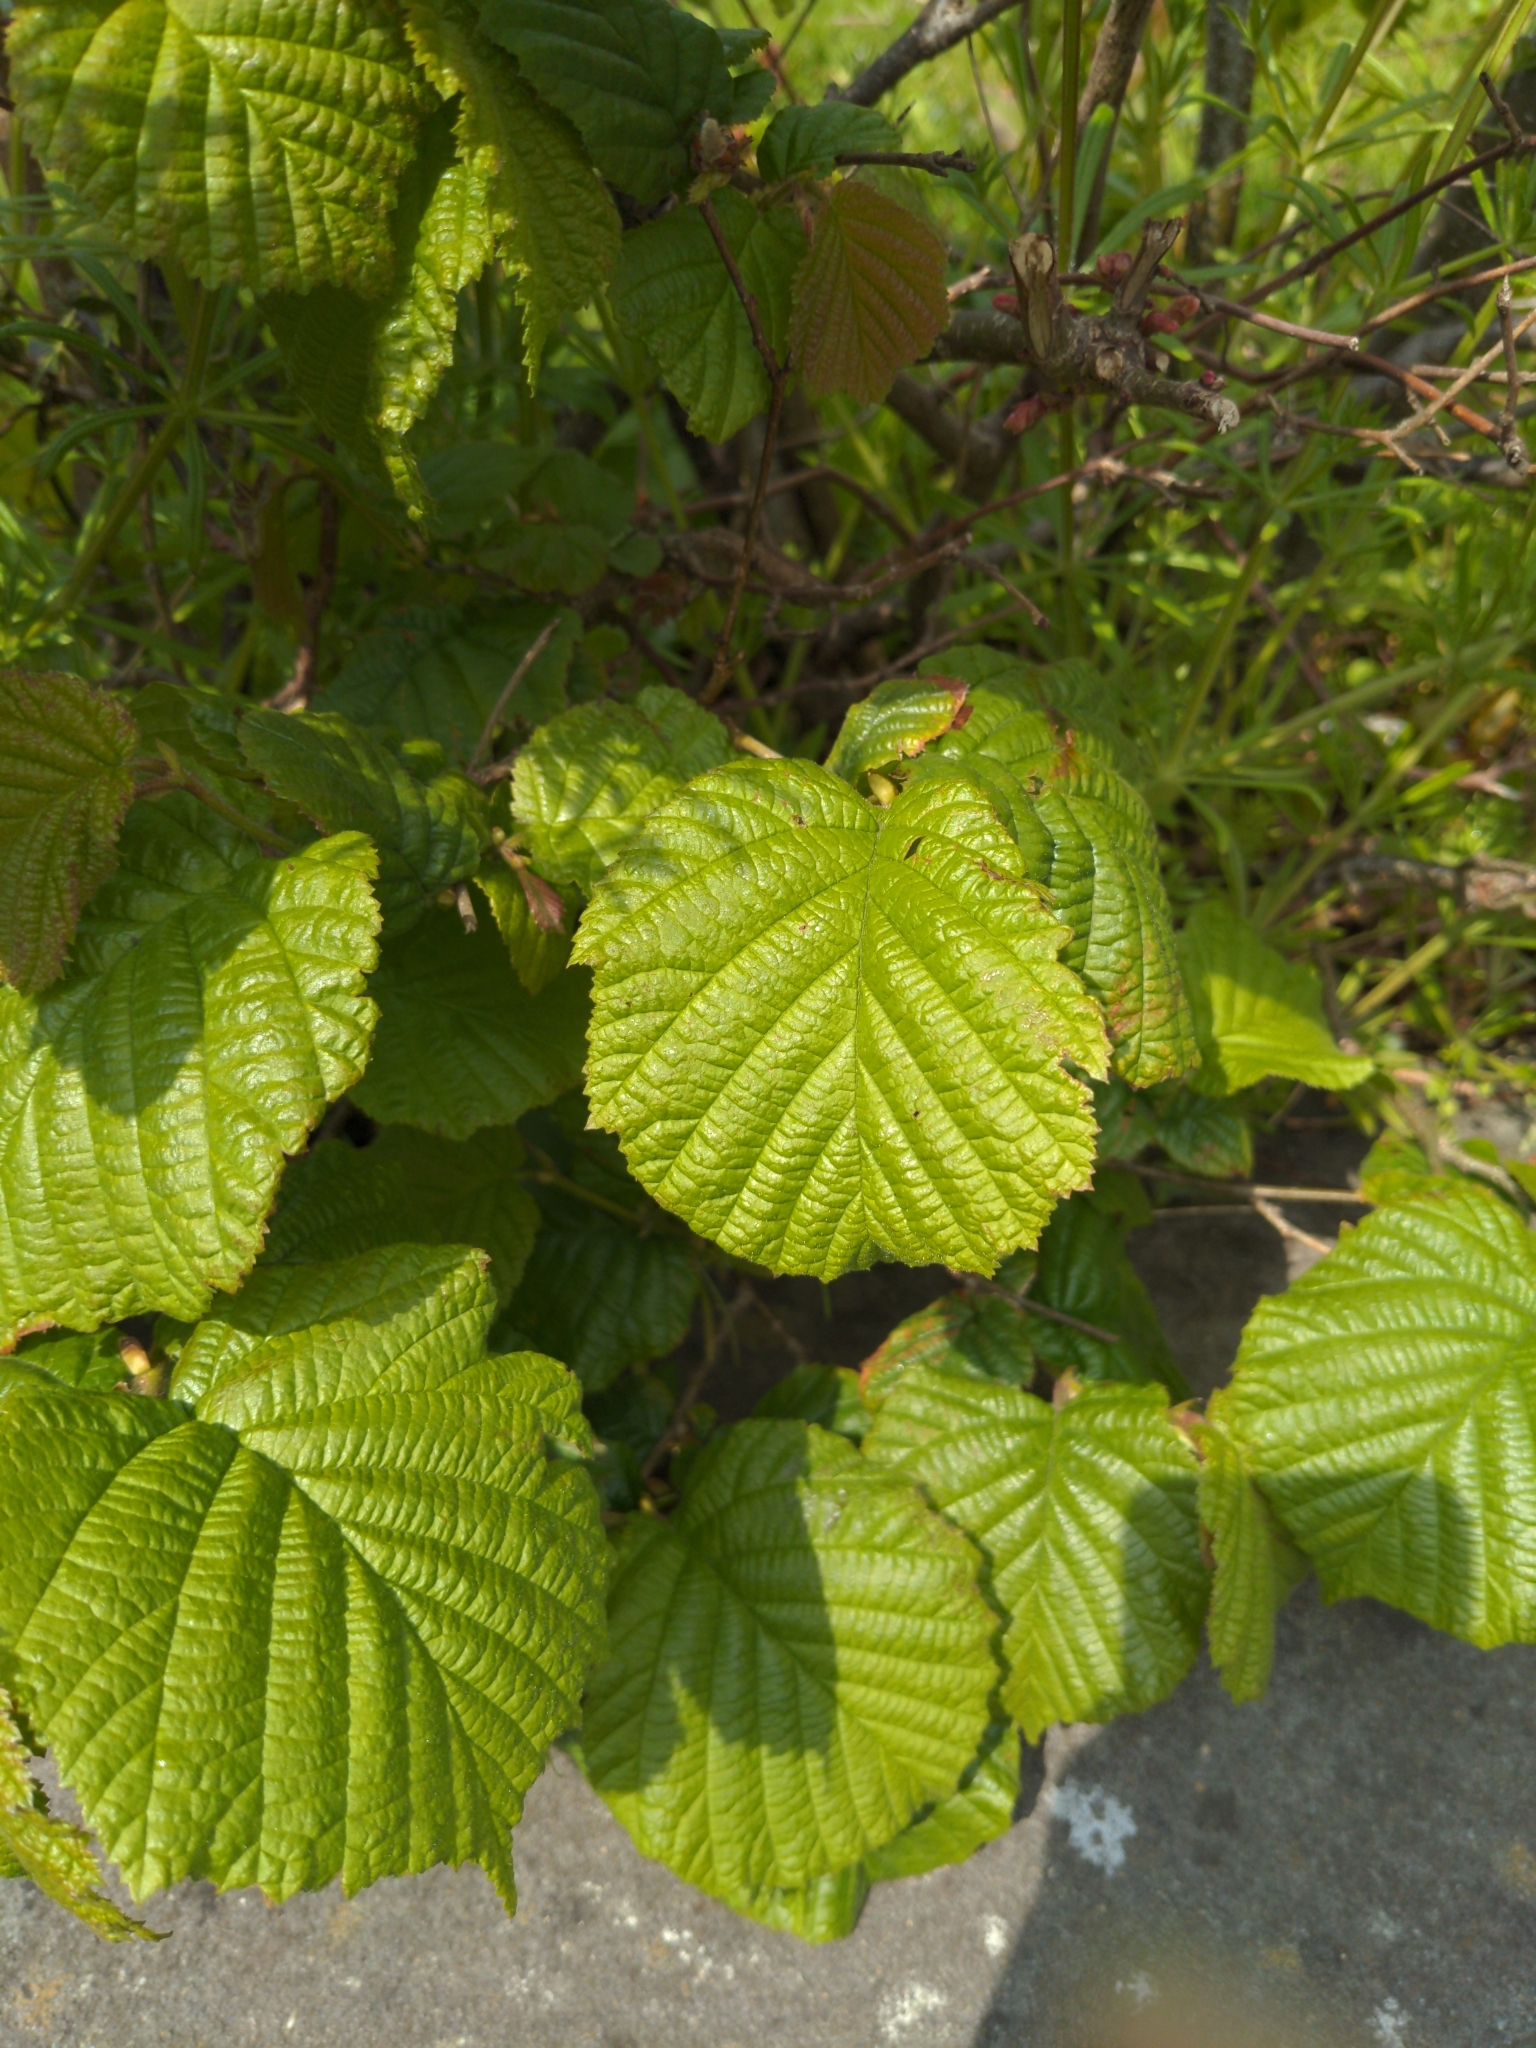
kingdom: Plantae
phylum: Tracheophyta
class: Magnoliopsida
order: Fagales
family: Betulaceae
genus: Corylus
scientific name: Corylus avellana
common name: European hazel
